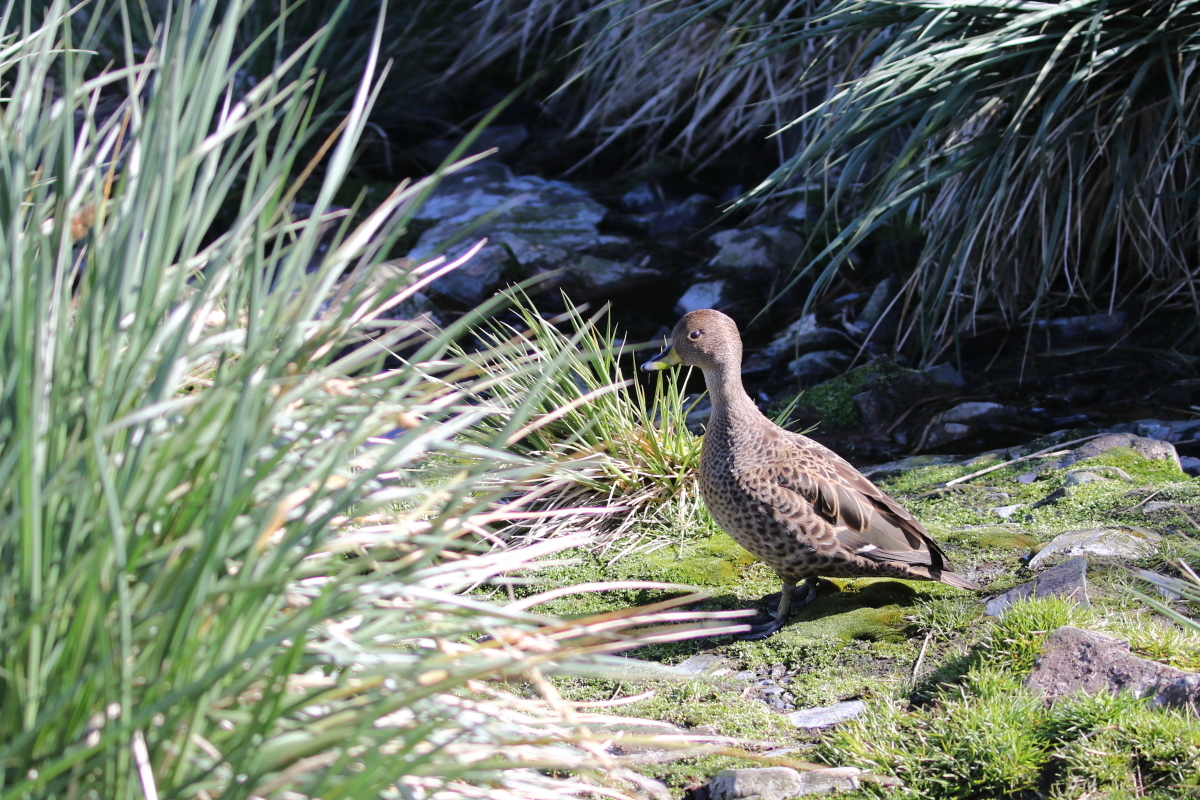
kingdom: Animalia
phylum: Chordata
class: Aves
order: Anseriformes
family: Anatidae
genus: Anas
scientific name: Anas georgica
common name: Yellow-billed pintail
